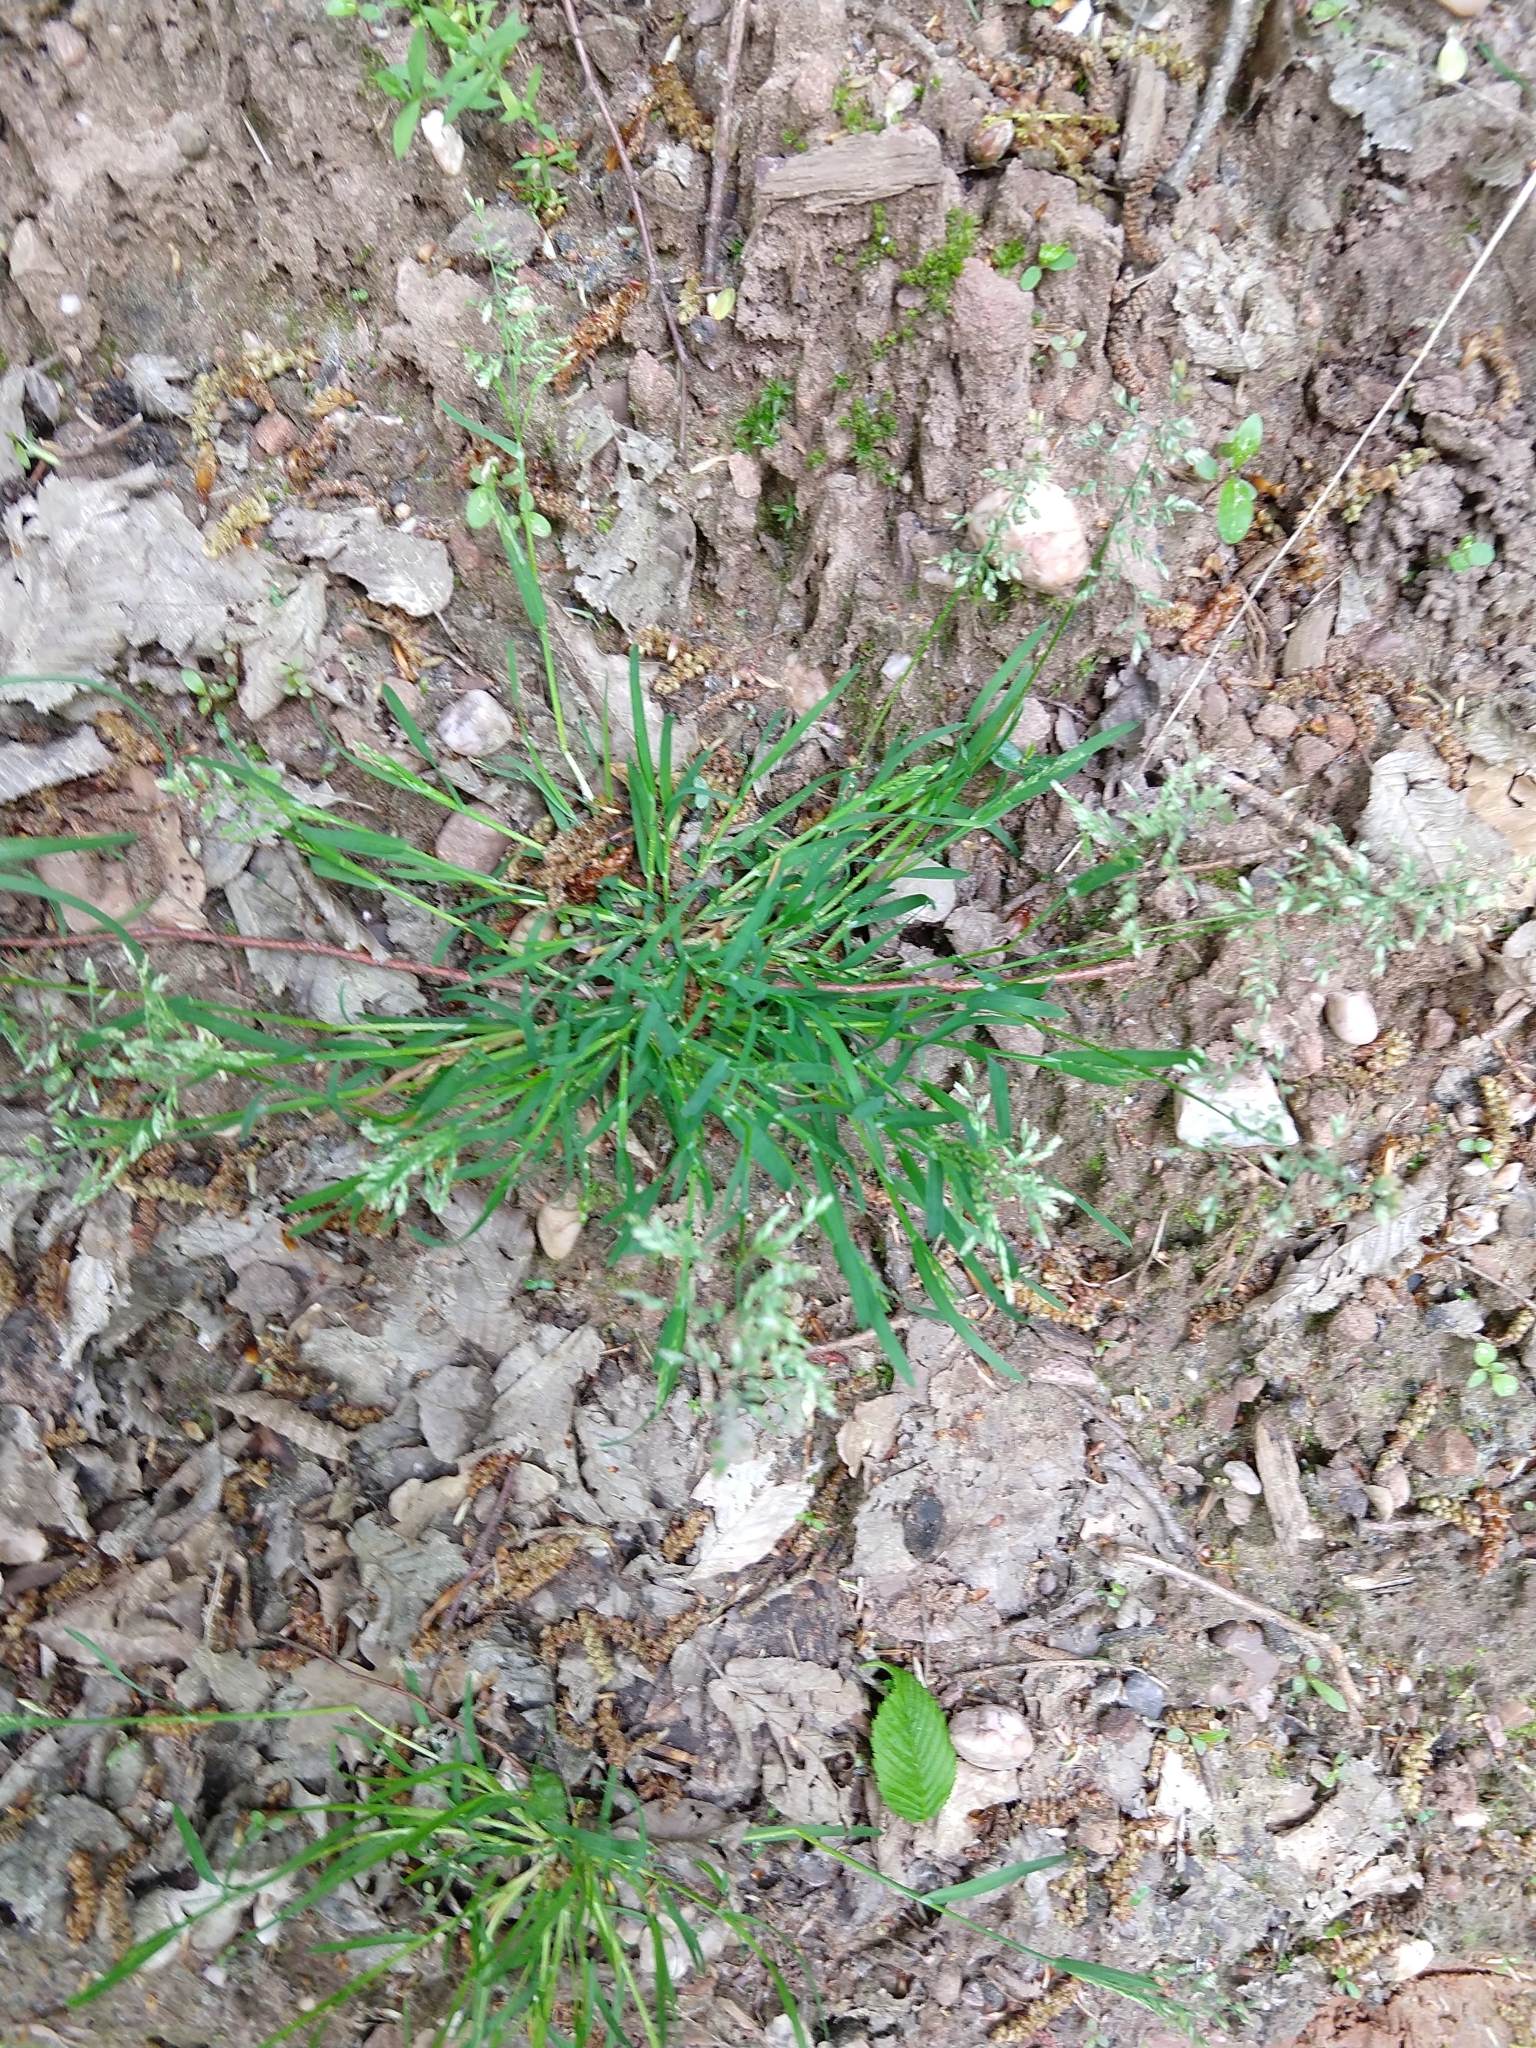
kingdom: Plantae
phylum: Tracheophyta
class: Liliopsida
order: Poales
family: Poaceae
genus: Poa
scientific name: Poa annua
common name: Annual bluegrass
